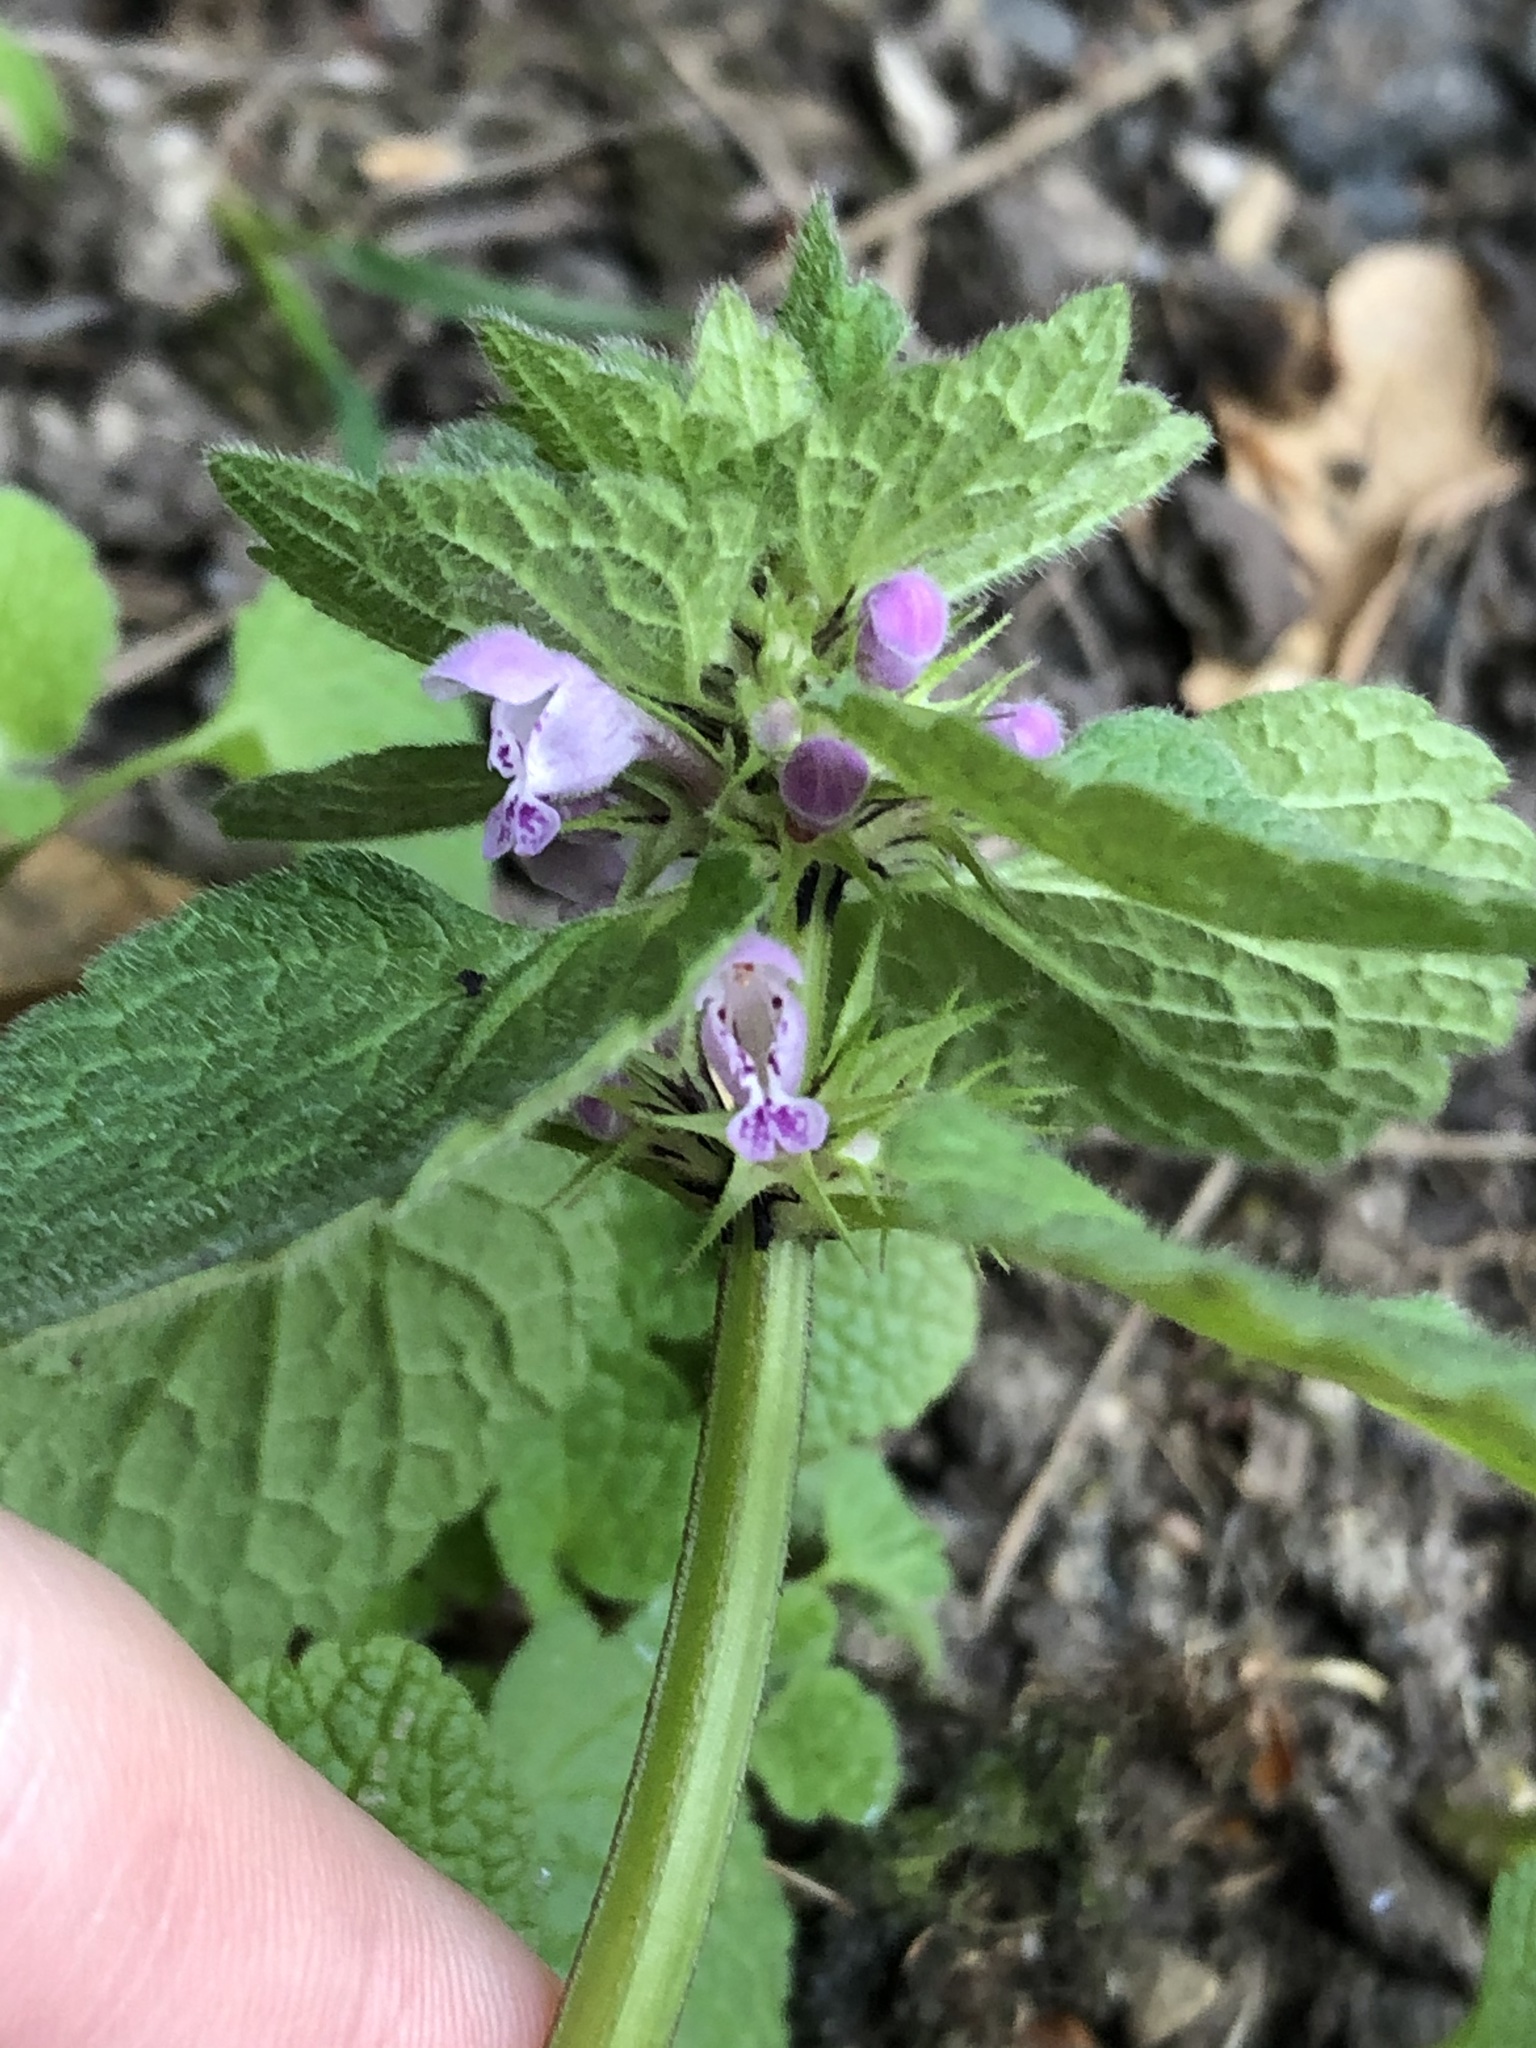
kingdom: Plantae
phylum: Tracheophyta
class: Magnoliopsida
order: Lamiales
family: Lamiaceae
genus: Lamium
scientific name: Lamium purpureum
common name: Red dead-nettle
